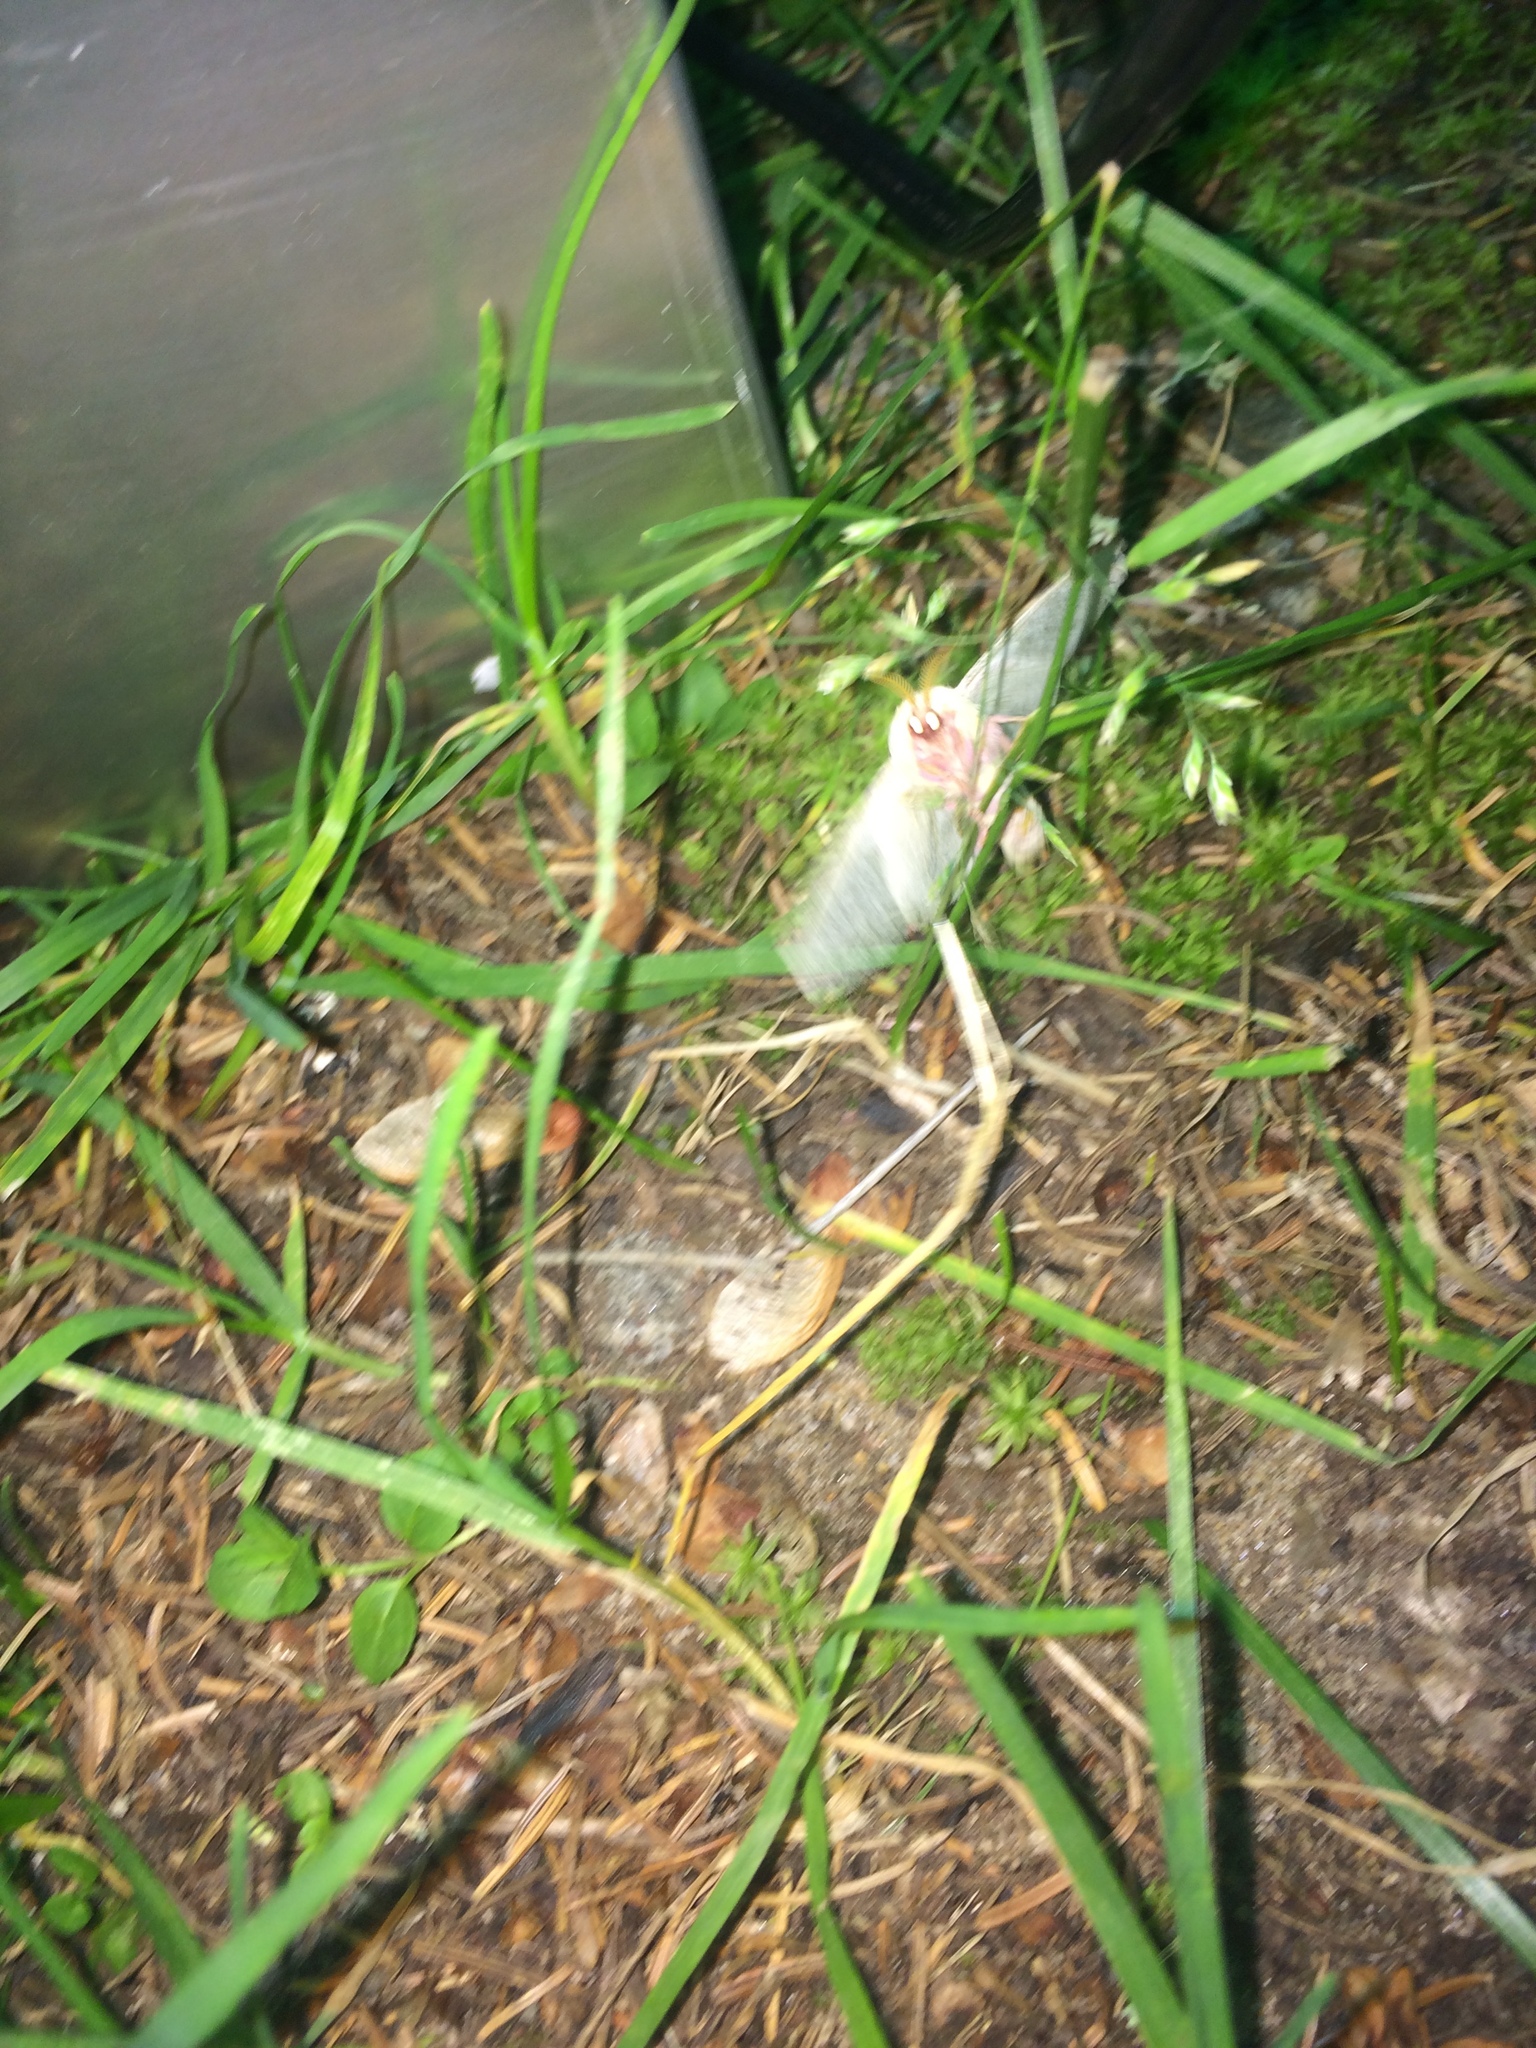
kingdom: Animalia
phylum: Arthropoda
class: Insecta
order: Lepidoptera
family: Saturniidae
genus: Dryocampa
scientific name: Dryocampa rubicunda
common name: Rosy maple moth
